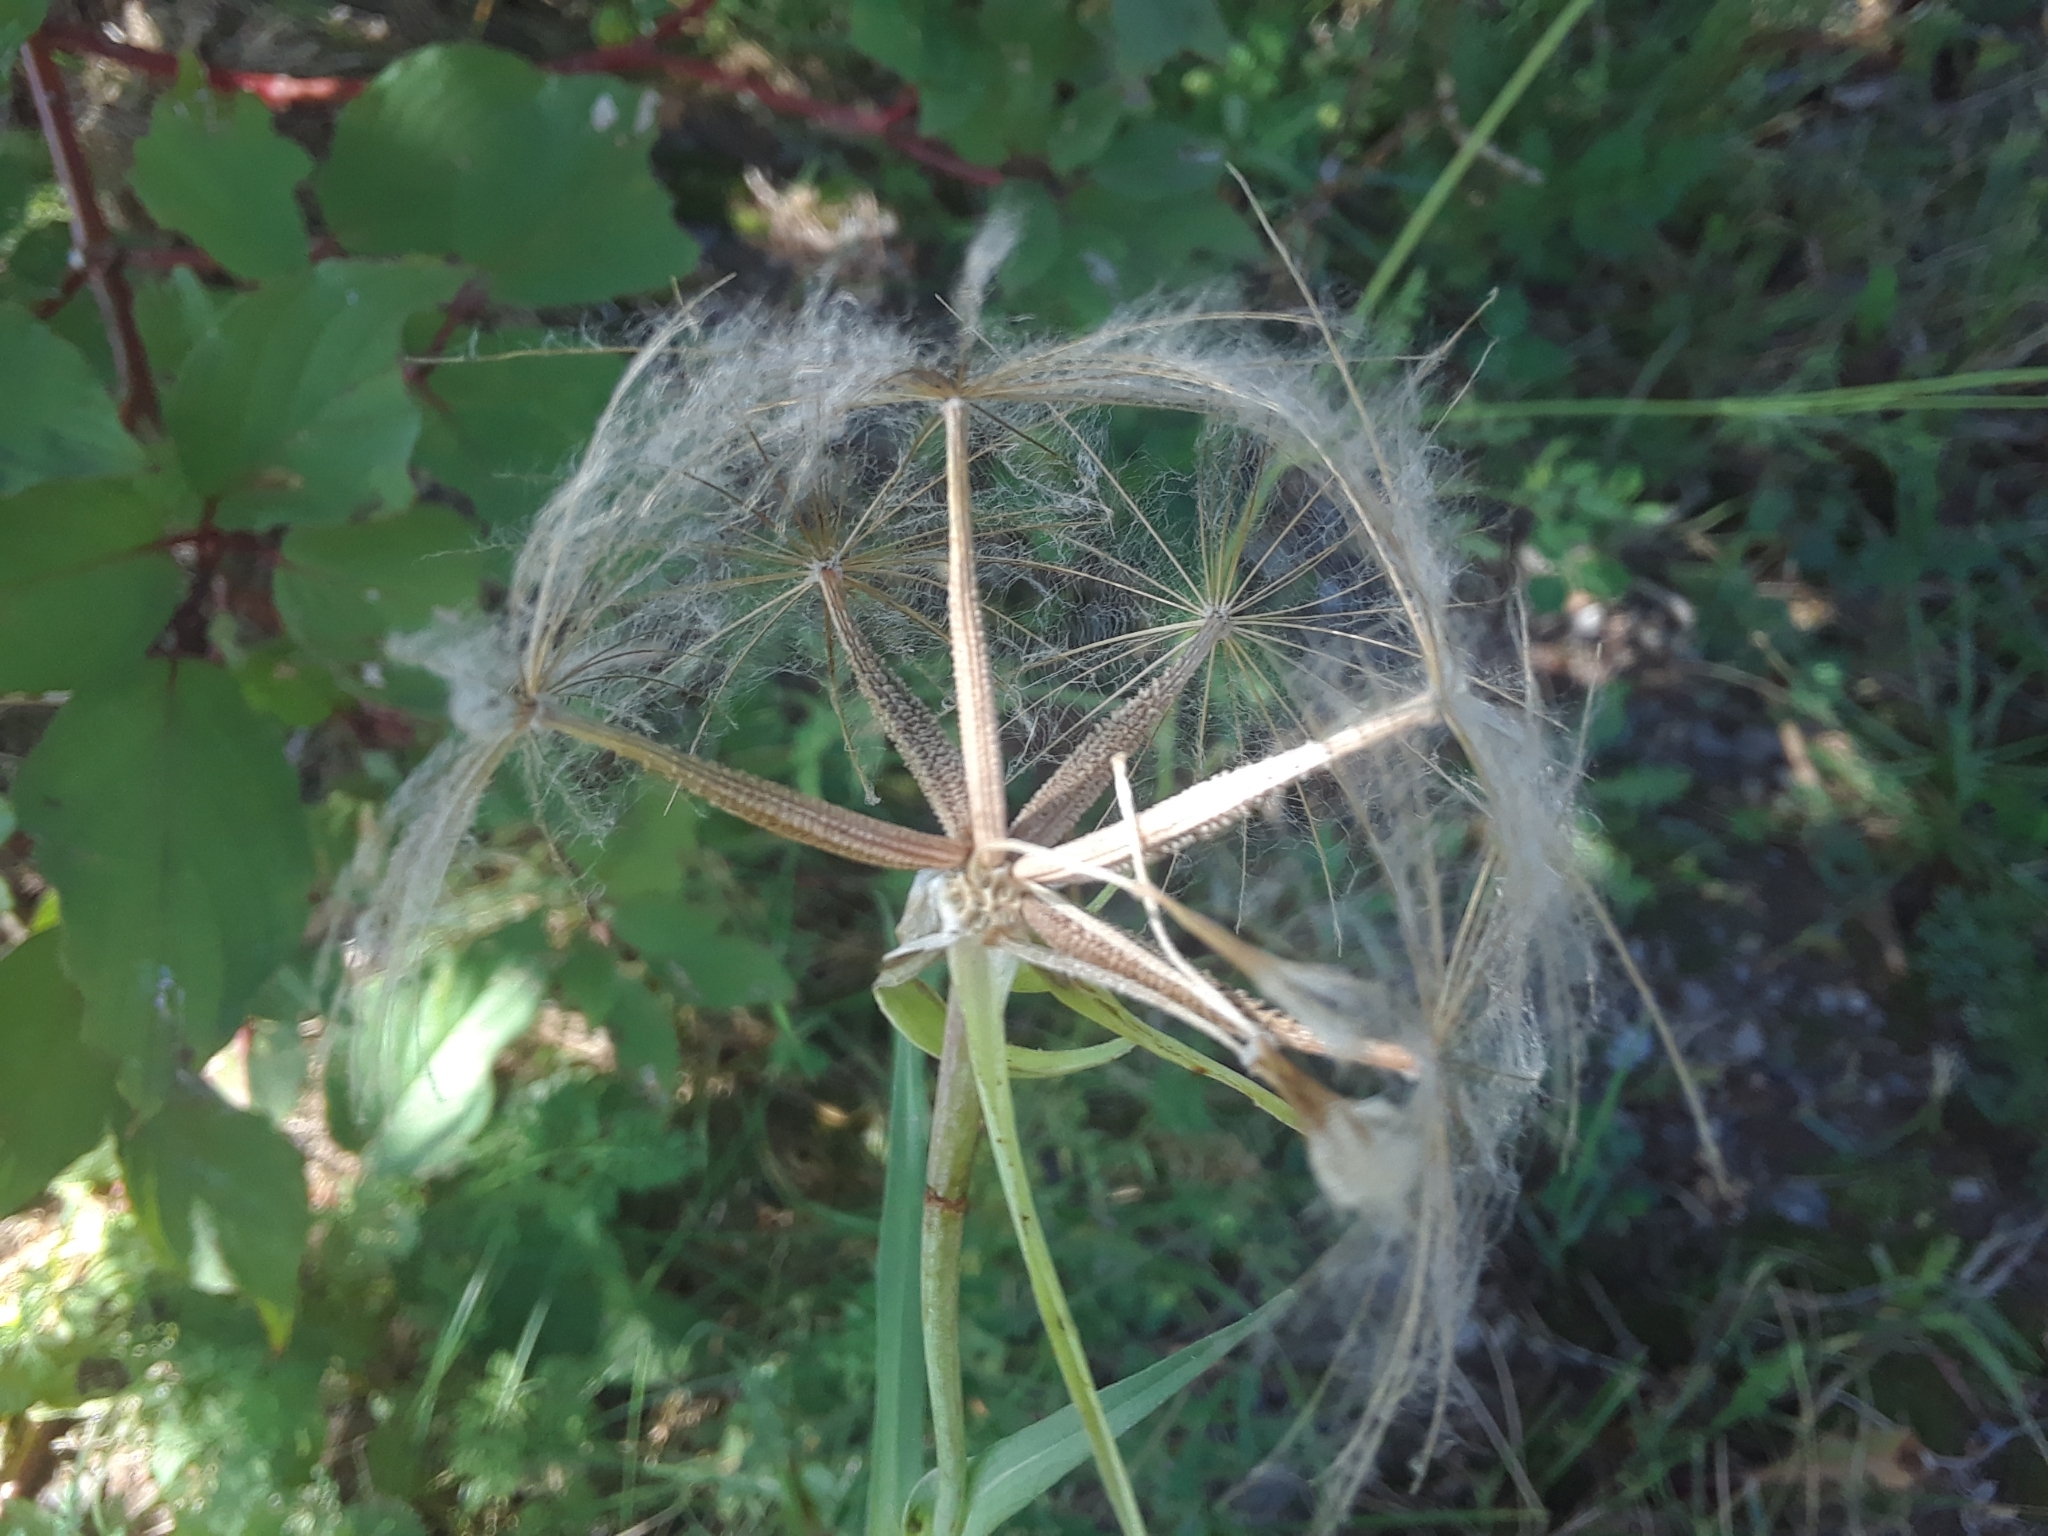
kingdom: Plantae
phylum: Tracheophyta
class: Magnoliopsida
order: Asterales
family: Asteraceae
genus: Tragopogon
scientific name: Tragopogon pratensis
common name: Goat's-beard
